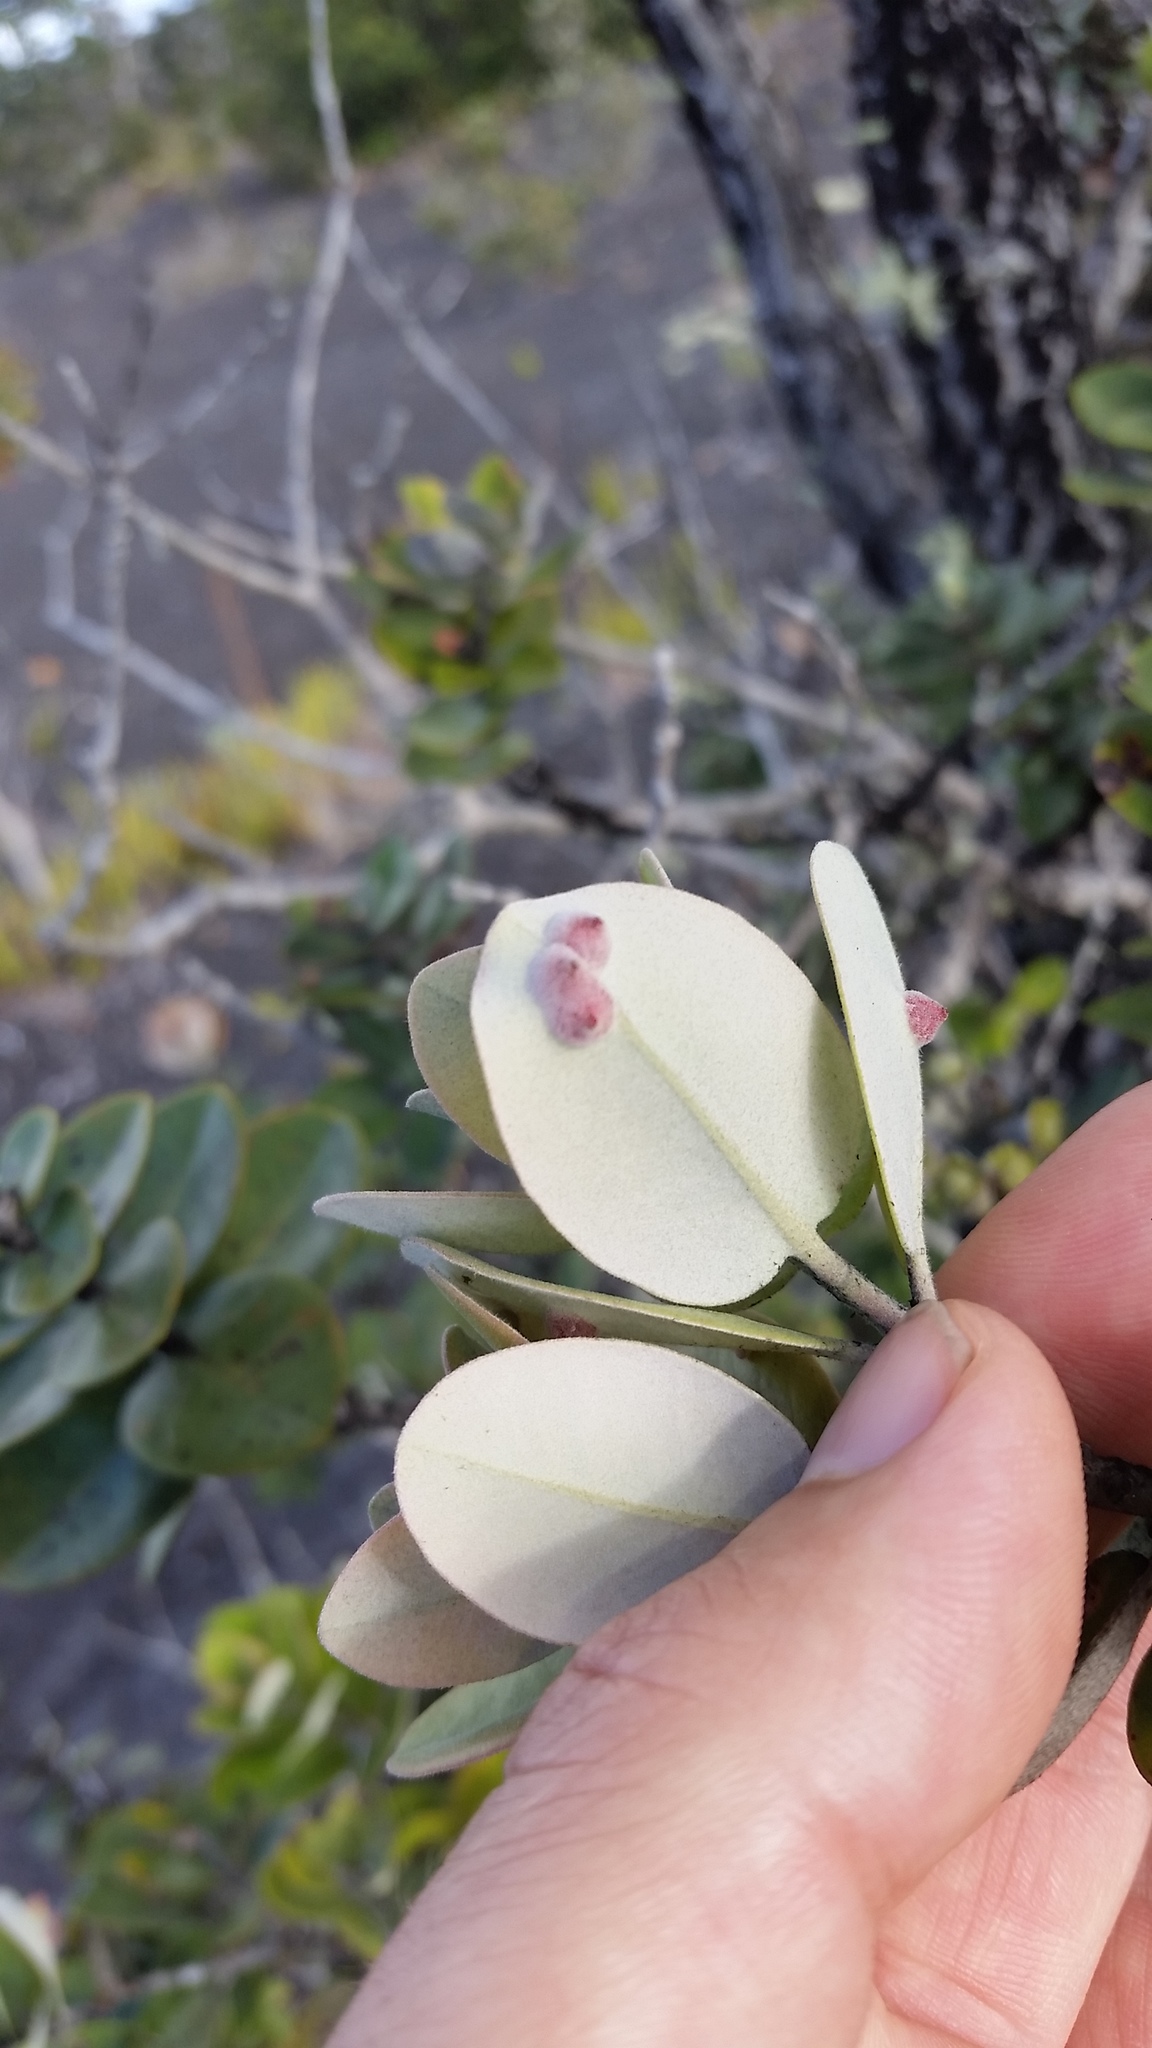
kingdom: Plantae
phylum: Tracheophyta
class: Magnoliopsida
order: Myrtales
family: Myrtaceae
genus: Metrosideros
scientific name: Metrosideros polymorpha
